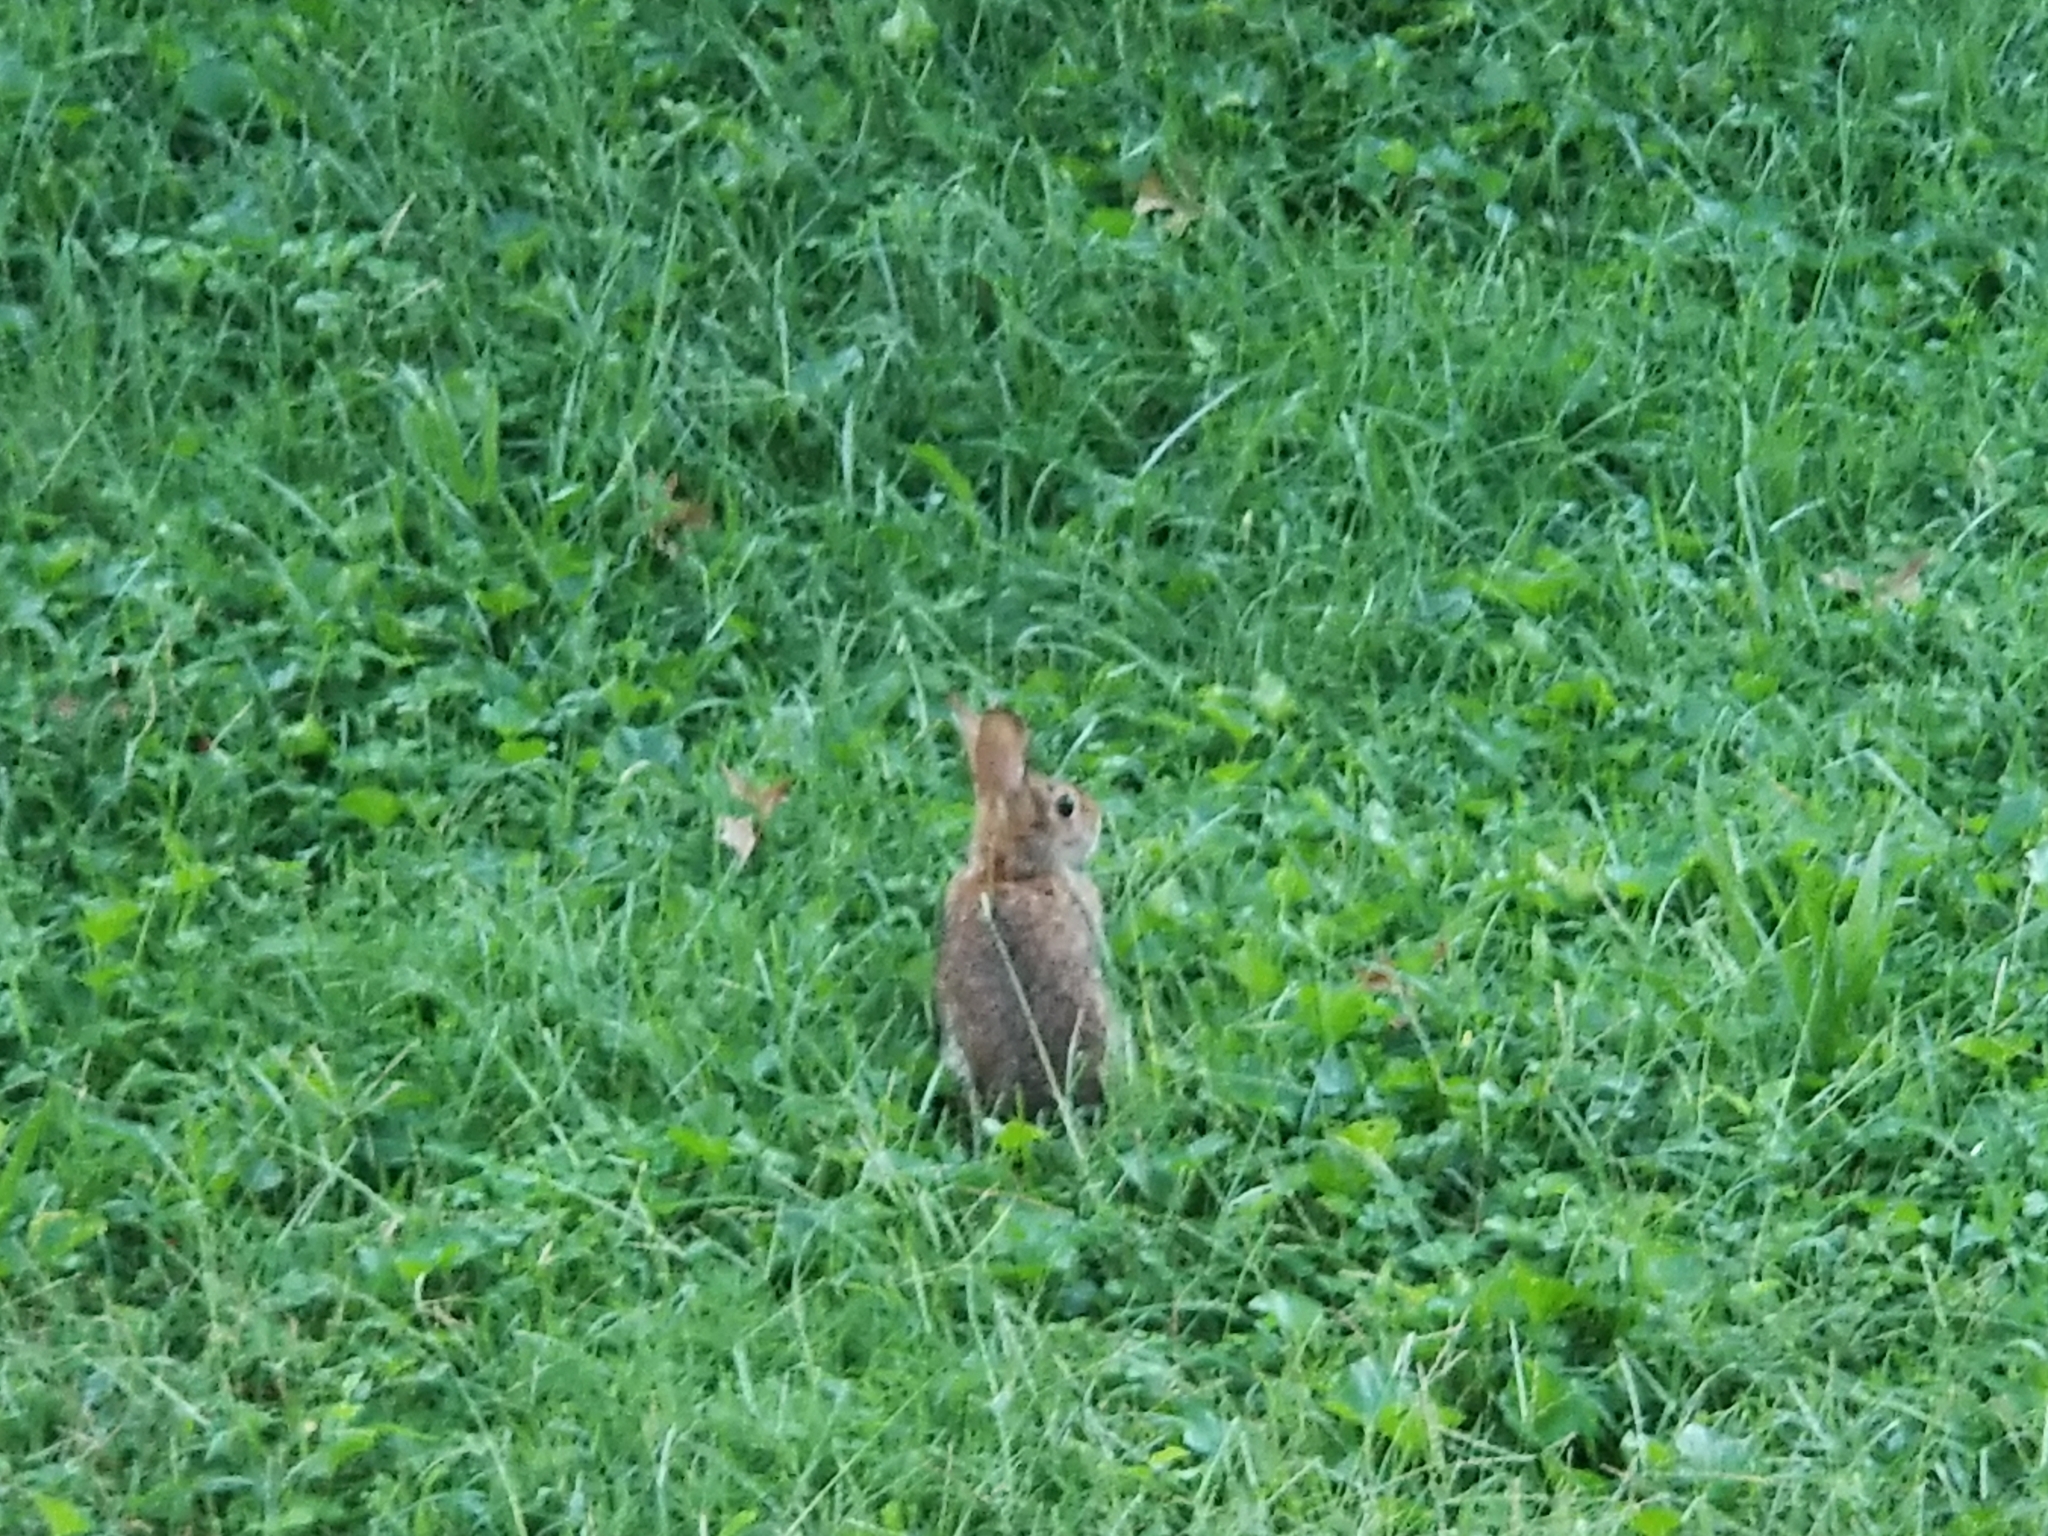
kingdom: Animalia
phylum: Chordata
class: Mammalia
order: Lagomorpha
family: Leporidae
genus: Sylvilagus
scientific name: Sylvilagus floridanus
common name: Eastern cottontail
